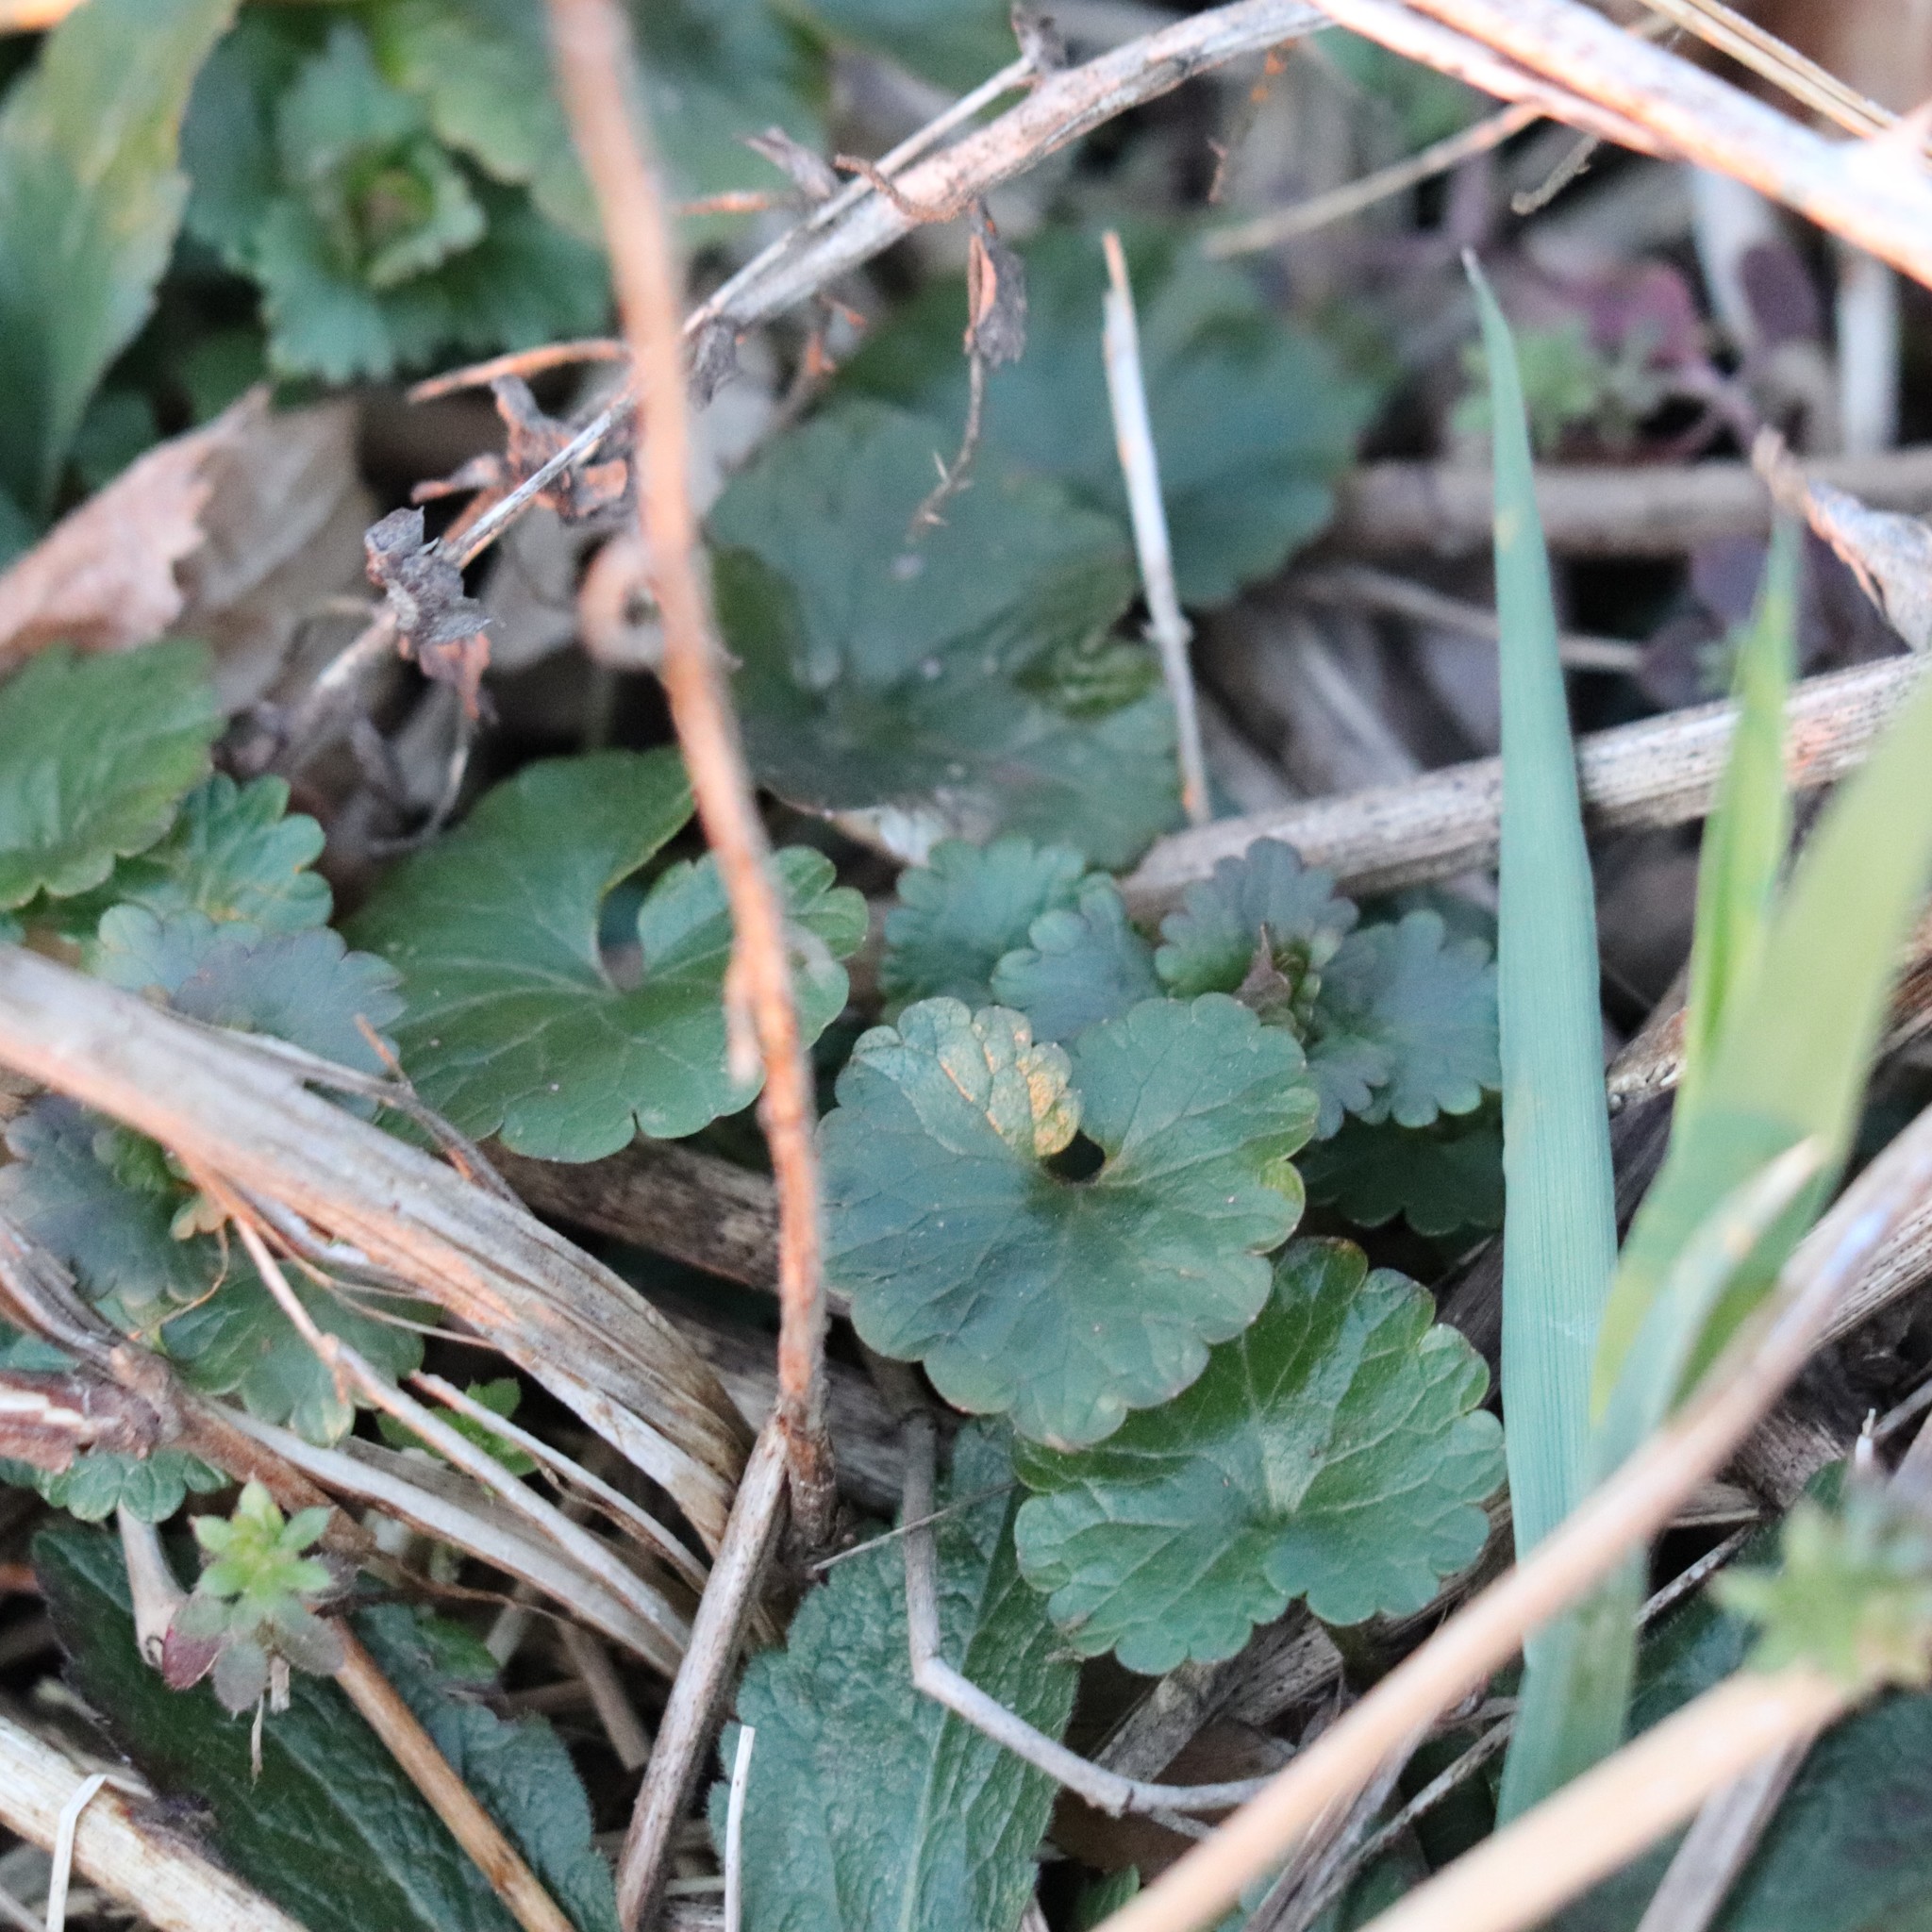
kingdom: Plantae
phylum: Tracheophyta
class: Magnoliopsida
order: Lamiales
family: Lamiaceae
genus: Glechoma
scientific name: Glechoma hederacea
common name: Ground ivy
